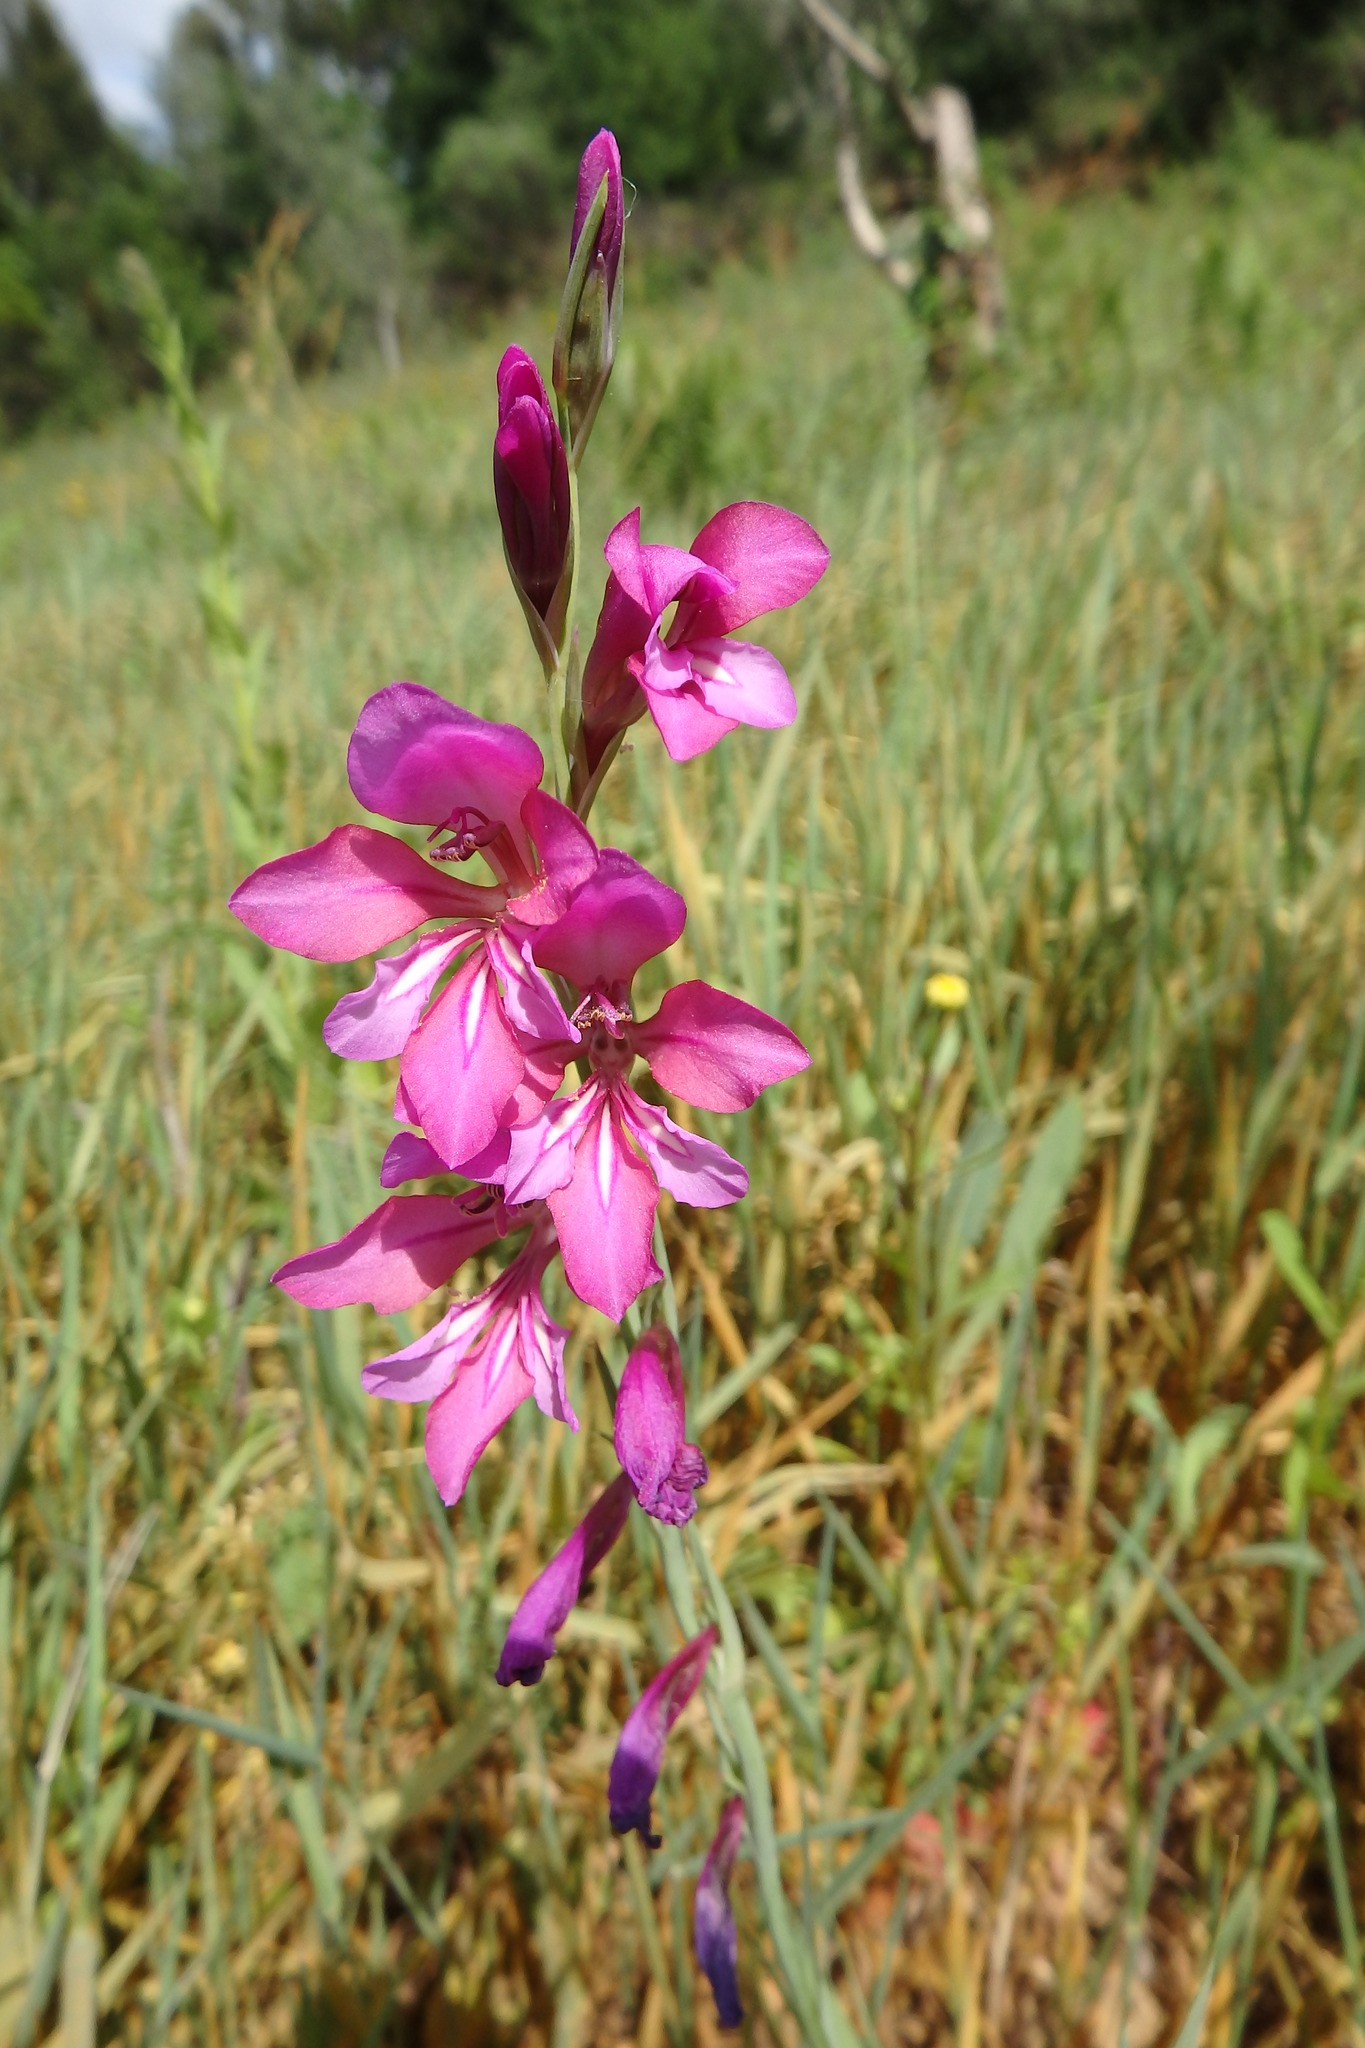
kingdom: Plantae
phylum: Tracheophyta
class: Liliopsida
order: Asparagales
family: Iridaceae
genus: Gladiolus
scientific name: Gladiolus illyricus
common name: Wild gladiolus
